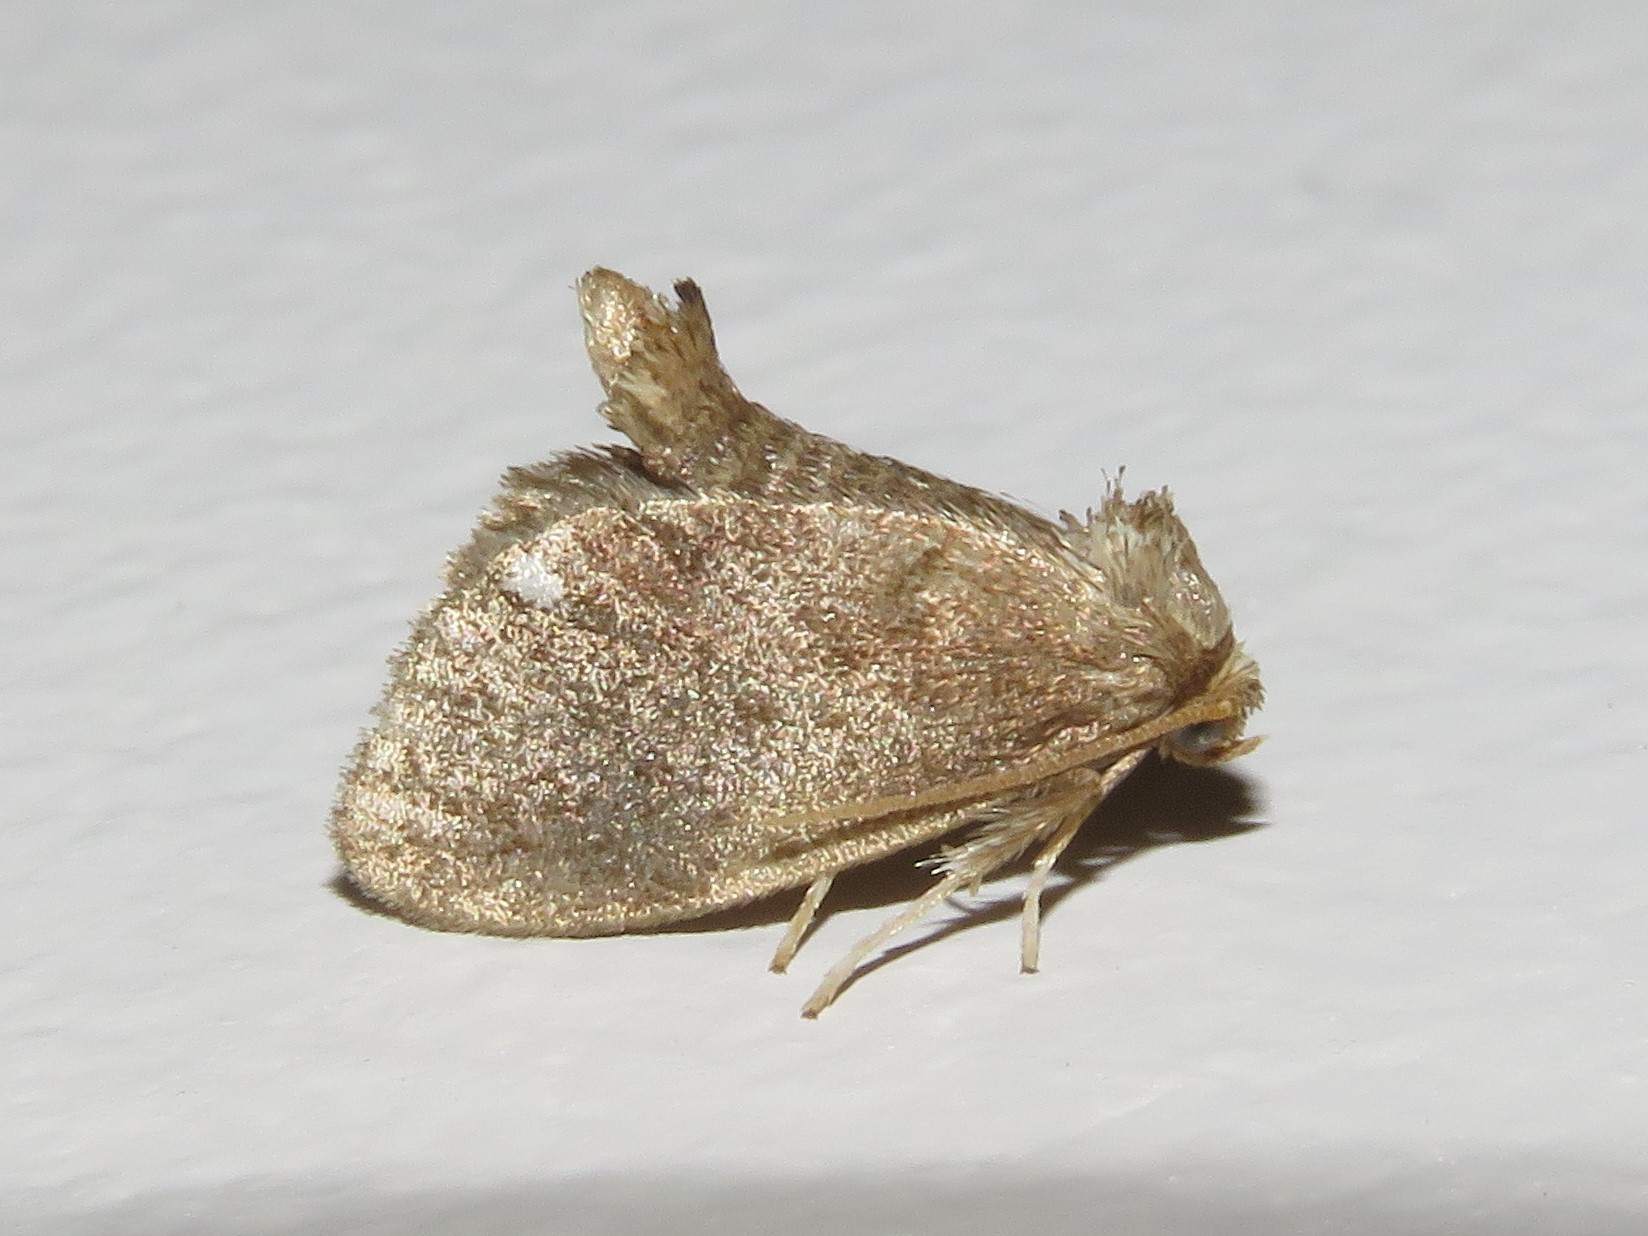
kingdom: Animalia
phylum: Arthropoda
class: Insecta
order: Lepidoptera
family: Limacodidae
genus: Packardia
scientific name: Packardia geminata
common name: Jeweled tailed slug moth
